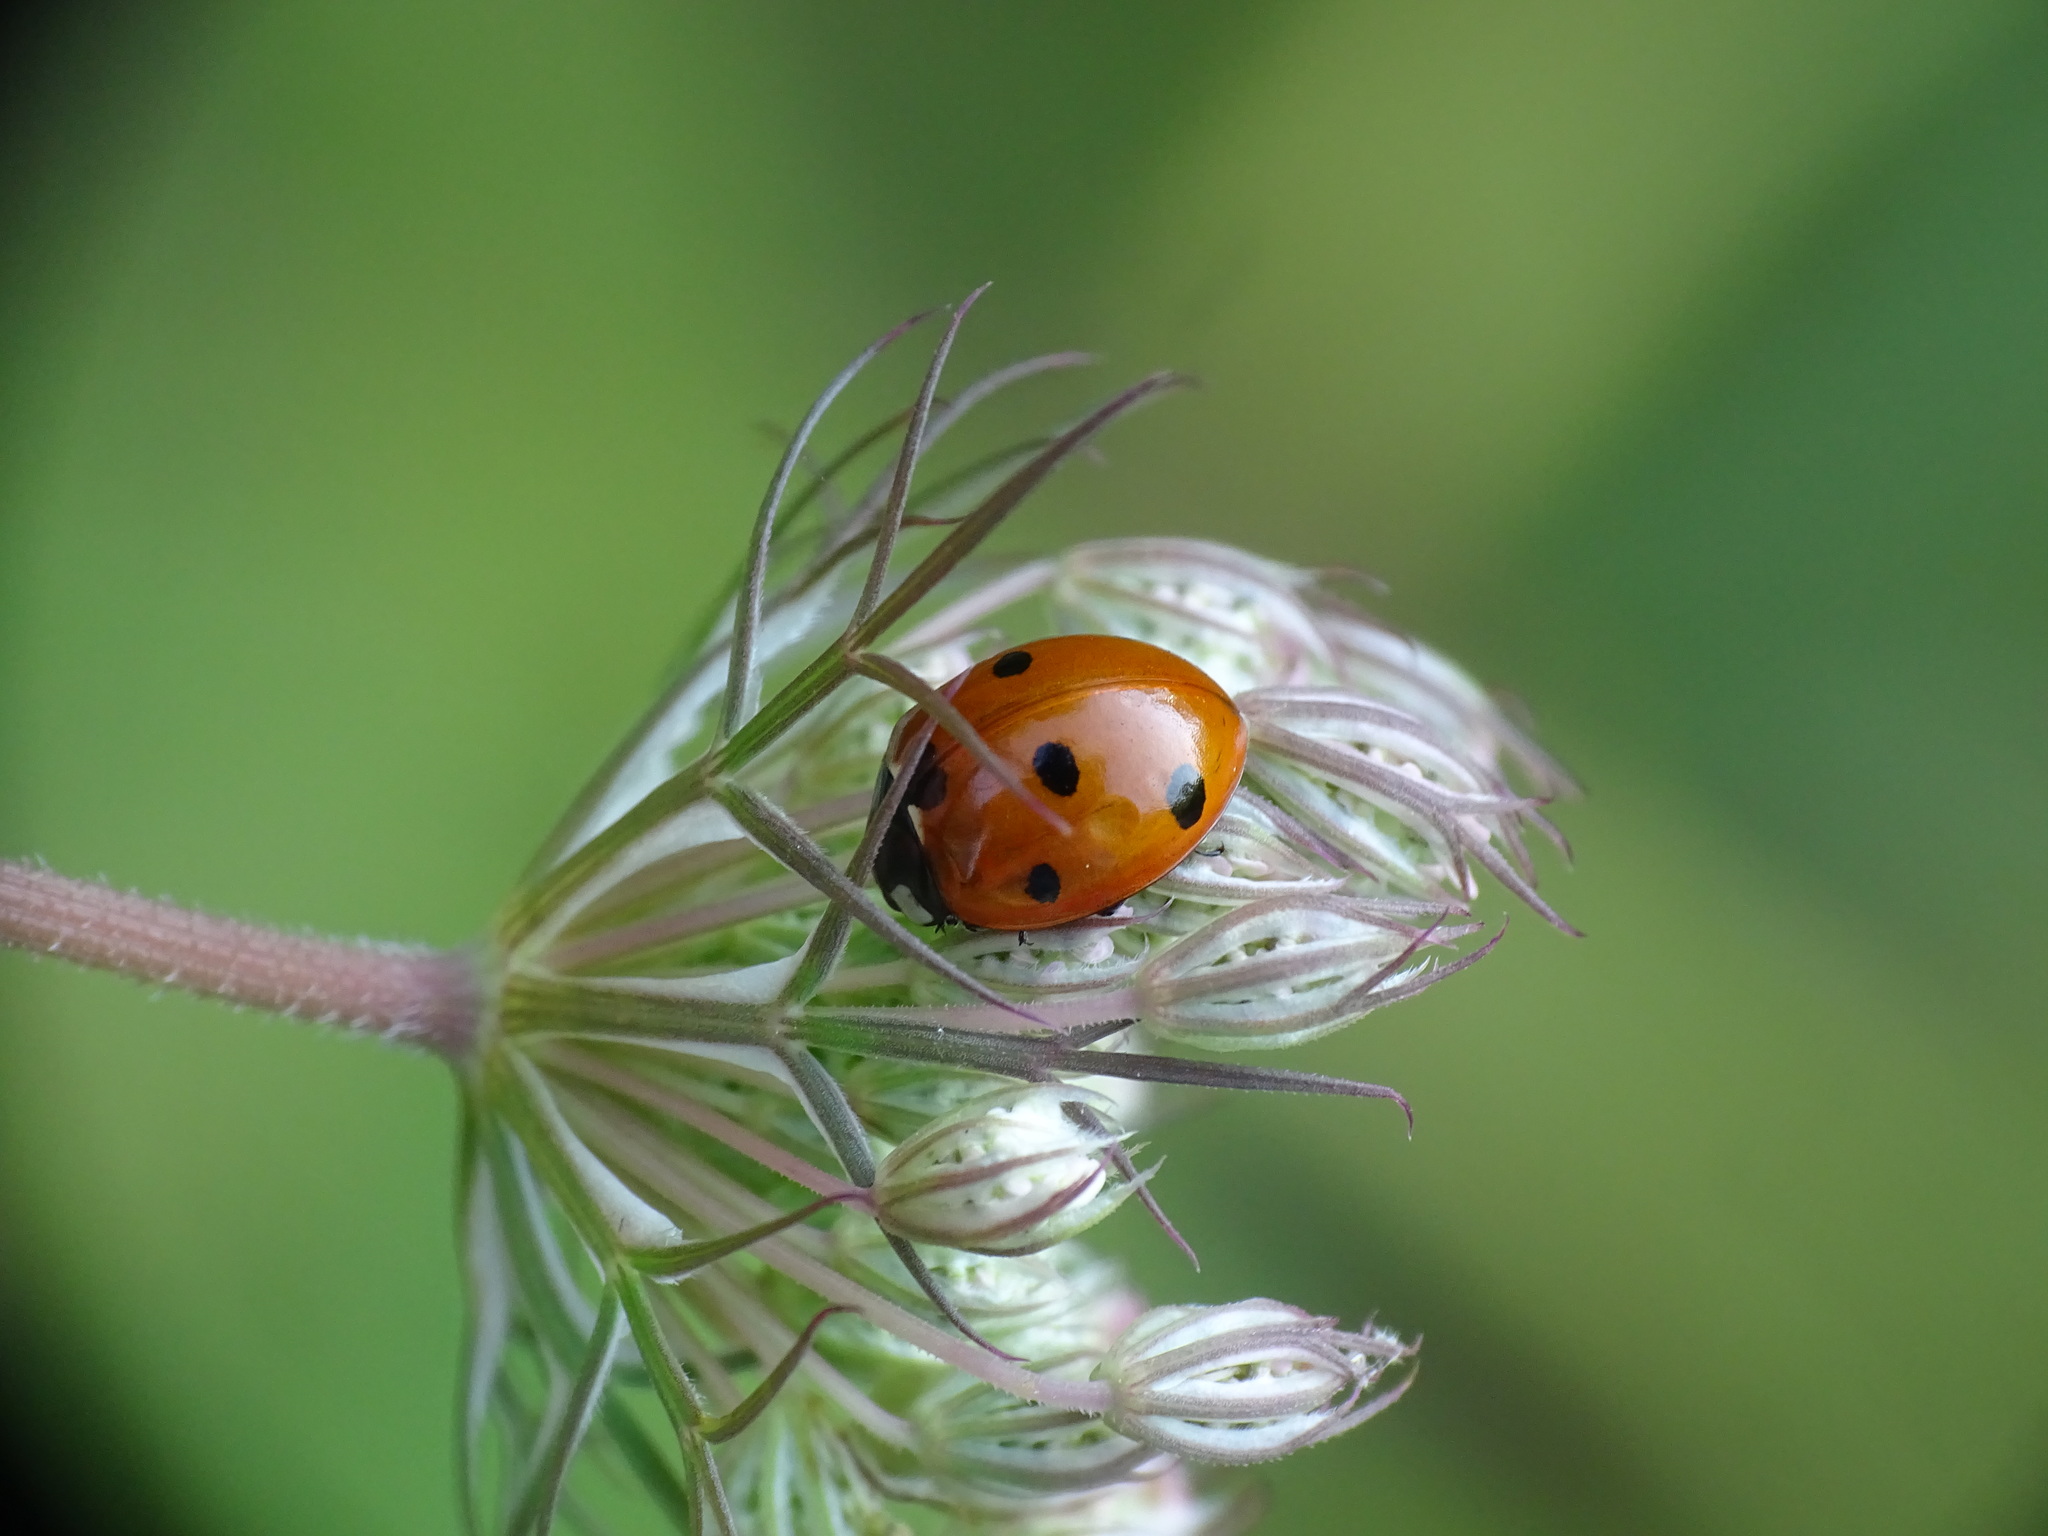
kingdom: Animalia
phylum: Arthropoda
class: Insecta
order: Coleoptera
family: Coccinellidae
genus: Coccinella
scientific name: Coccinella septempunctata
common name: Sevenspotted lady beetle
